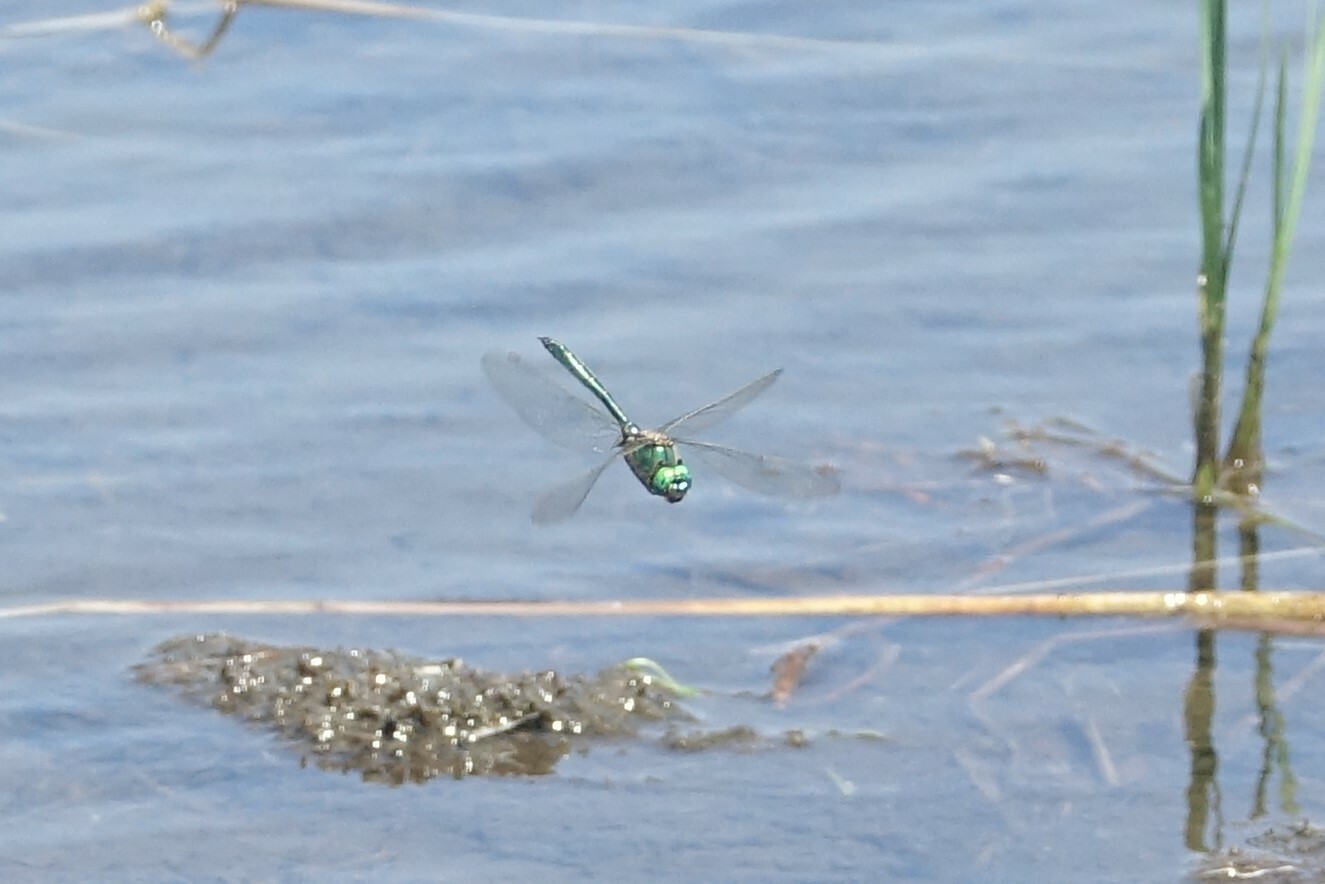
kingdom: Animalia
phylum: Arthropoda
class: Insecta
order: Odonata
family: Corduliidae
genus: Cordulia
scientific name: Cordulia aenea
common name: Downy emerald
